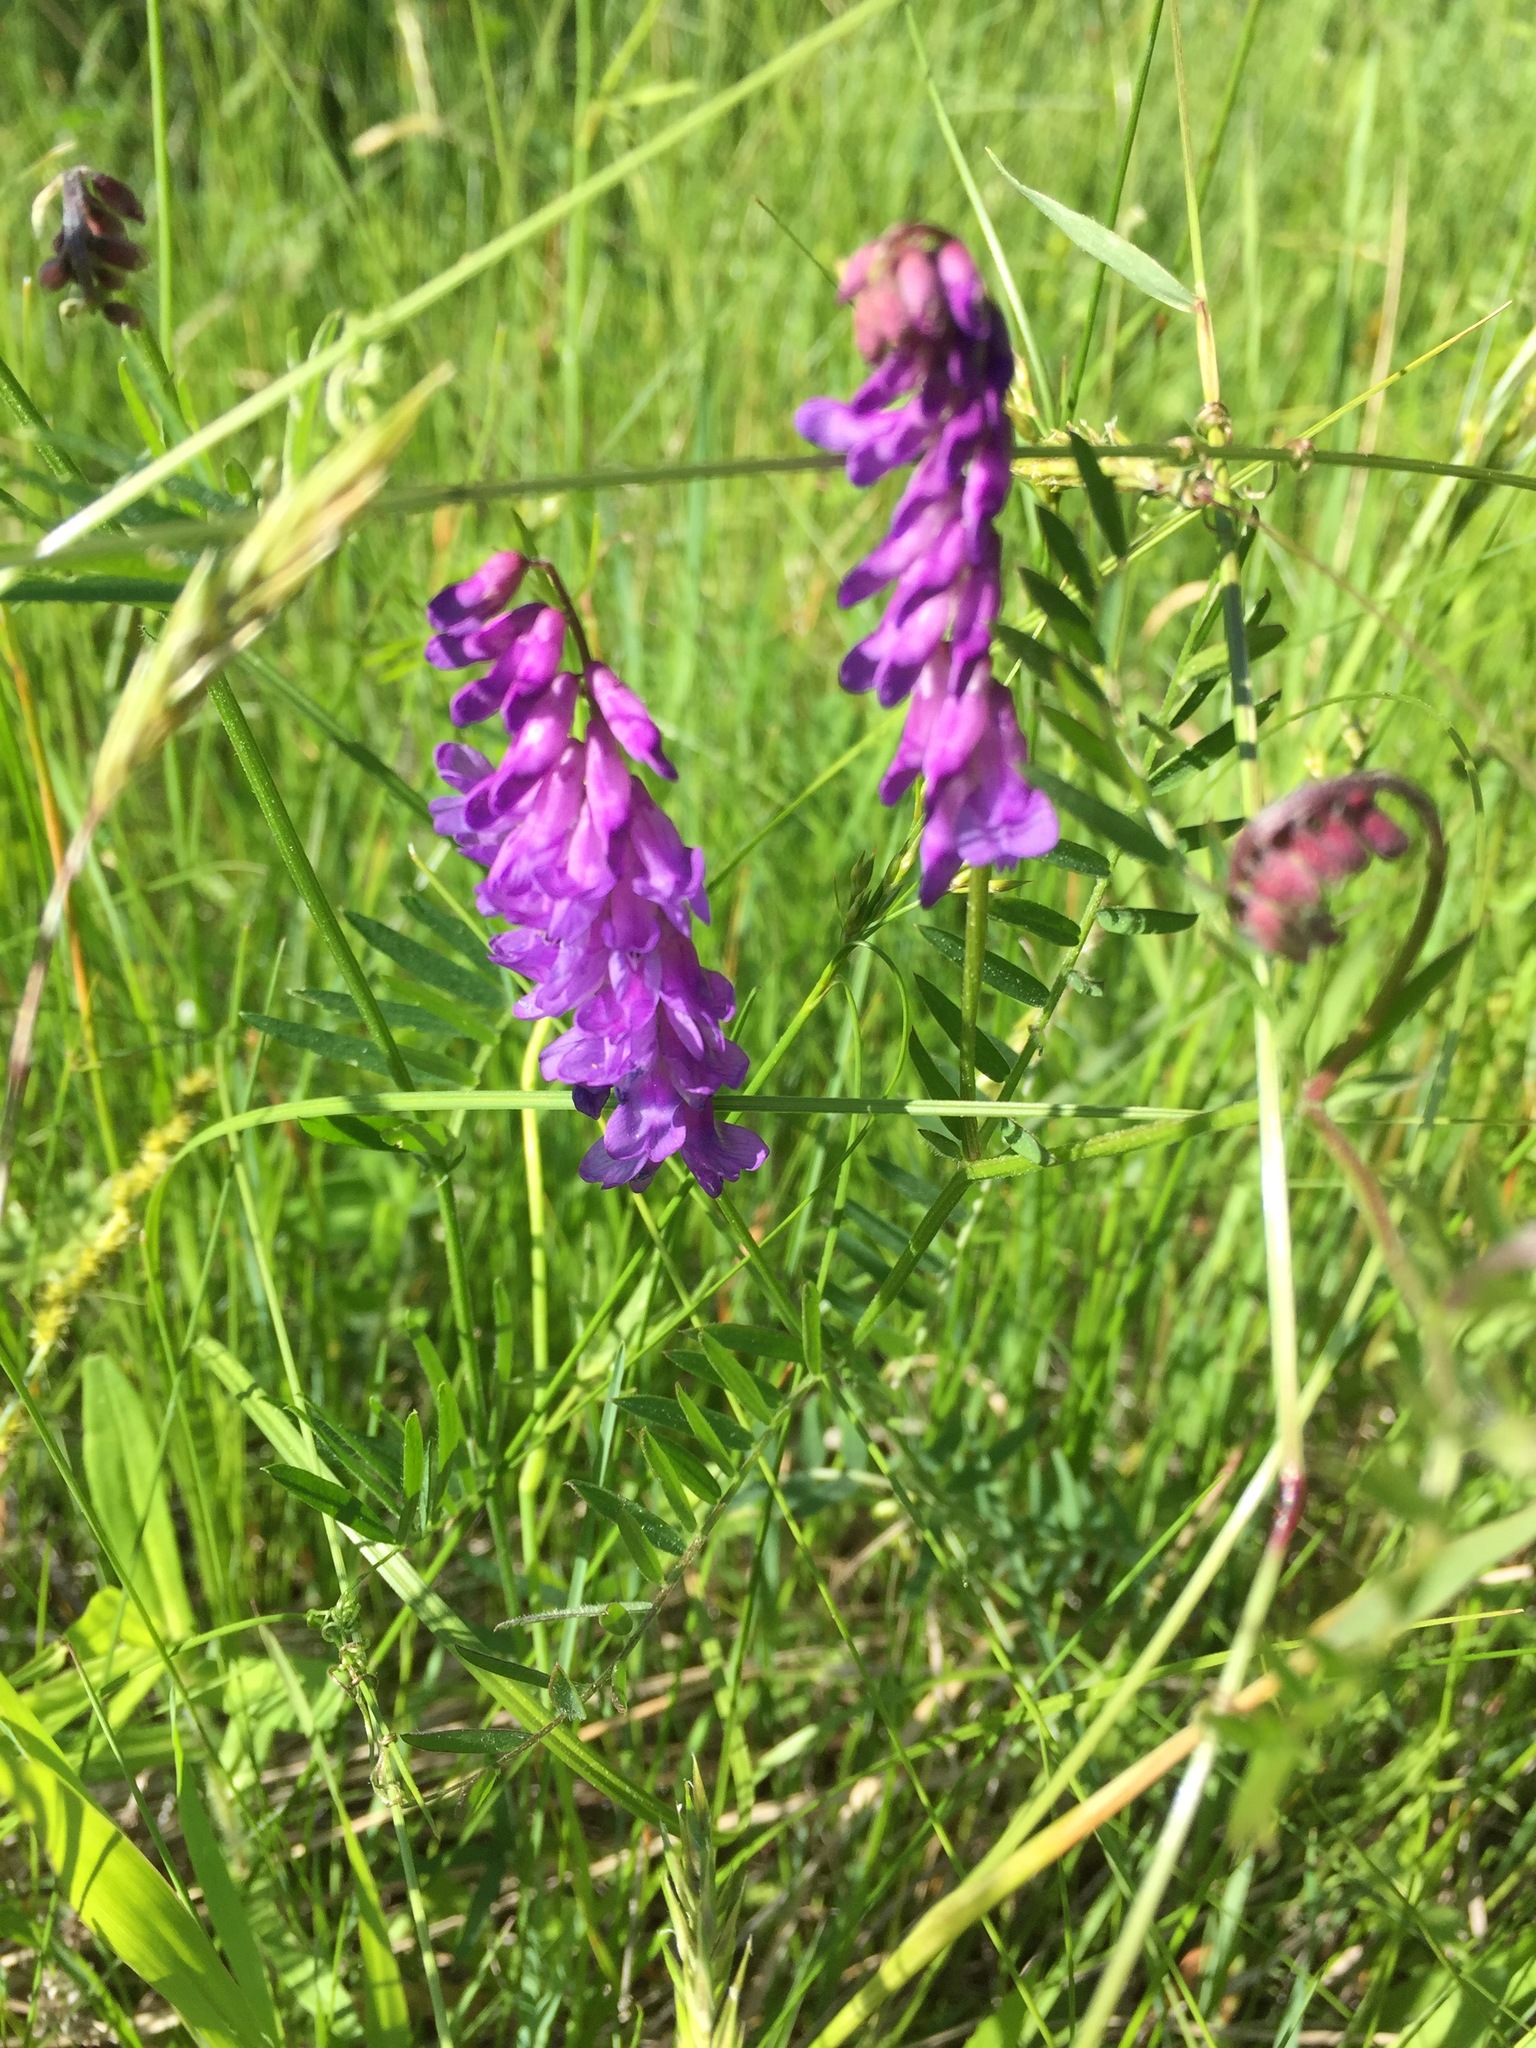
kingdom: Plantae
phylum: Tracheophyta
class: Magnoliopsida
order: Fabales
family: Fabaceae
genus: Vicia
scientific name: Vicia cracca
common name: Bird vetch
